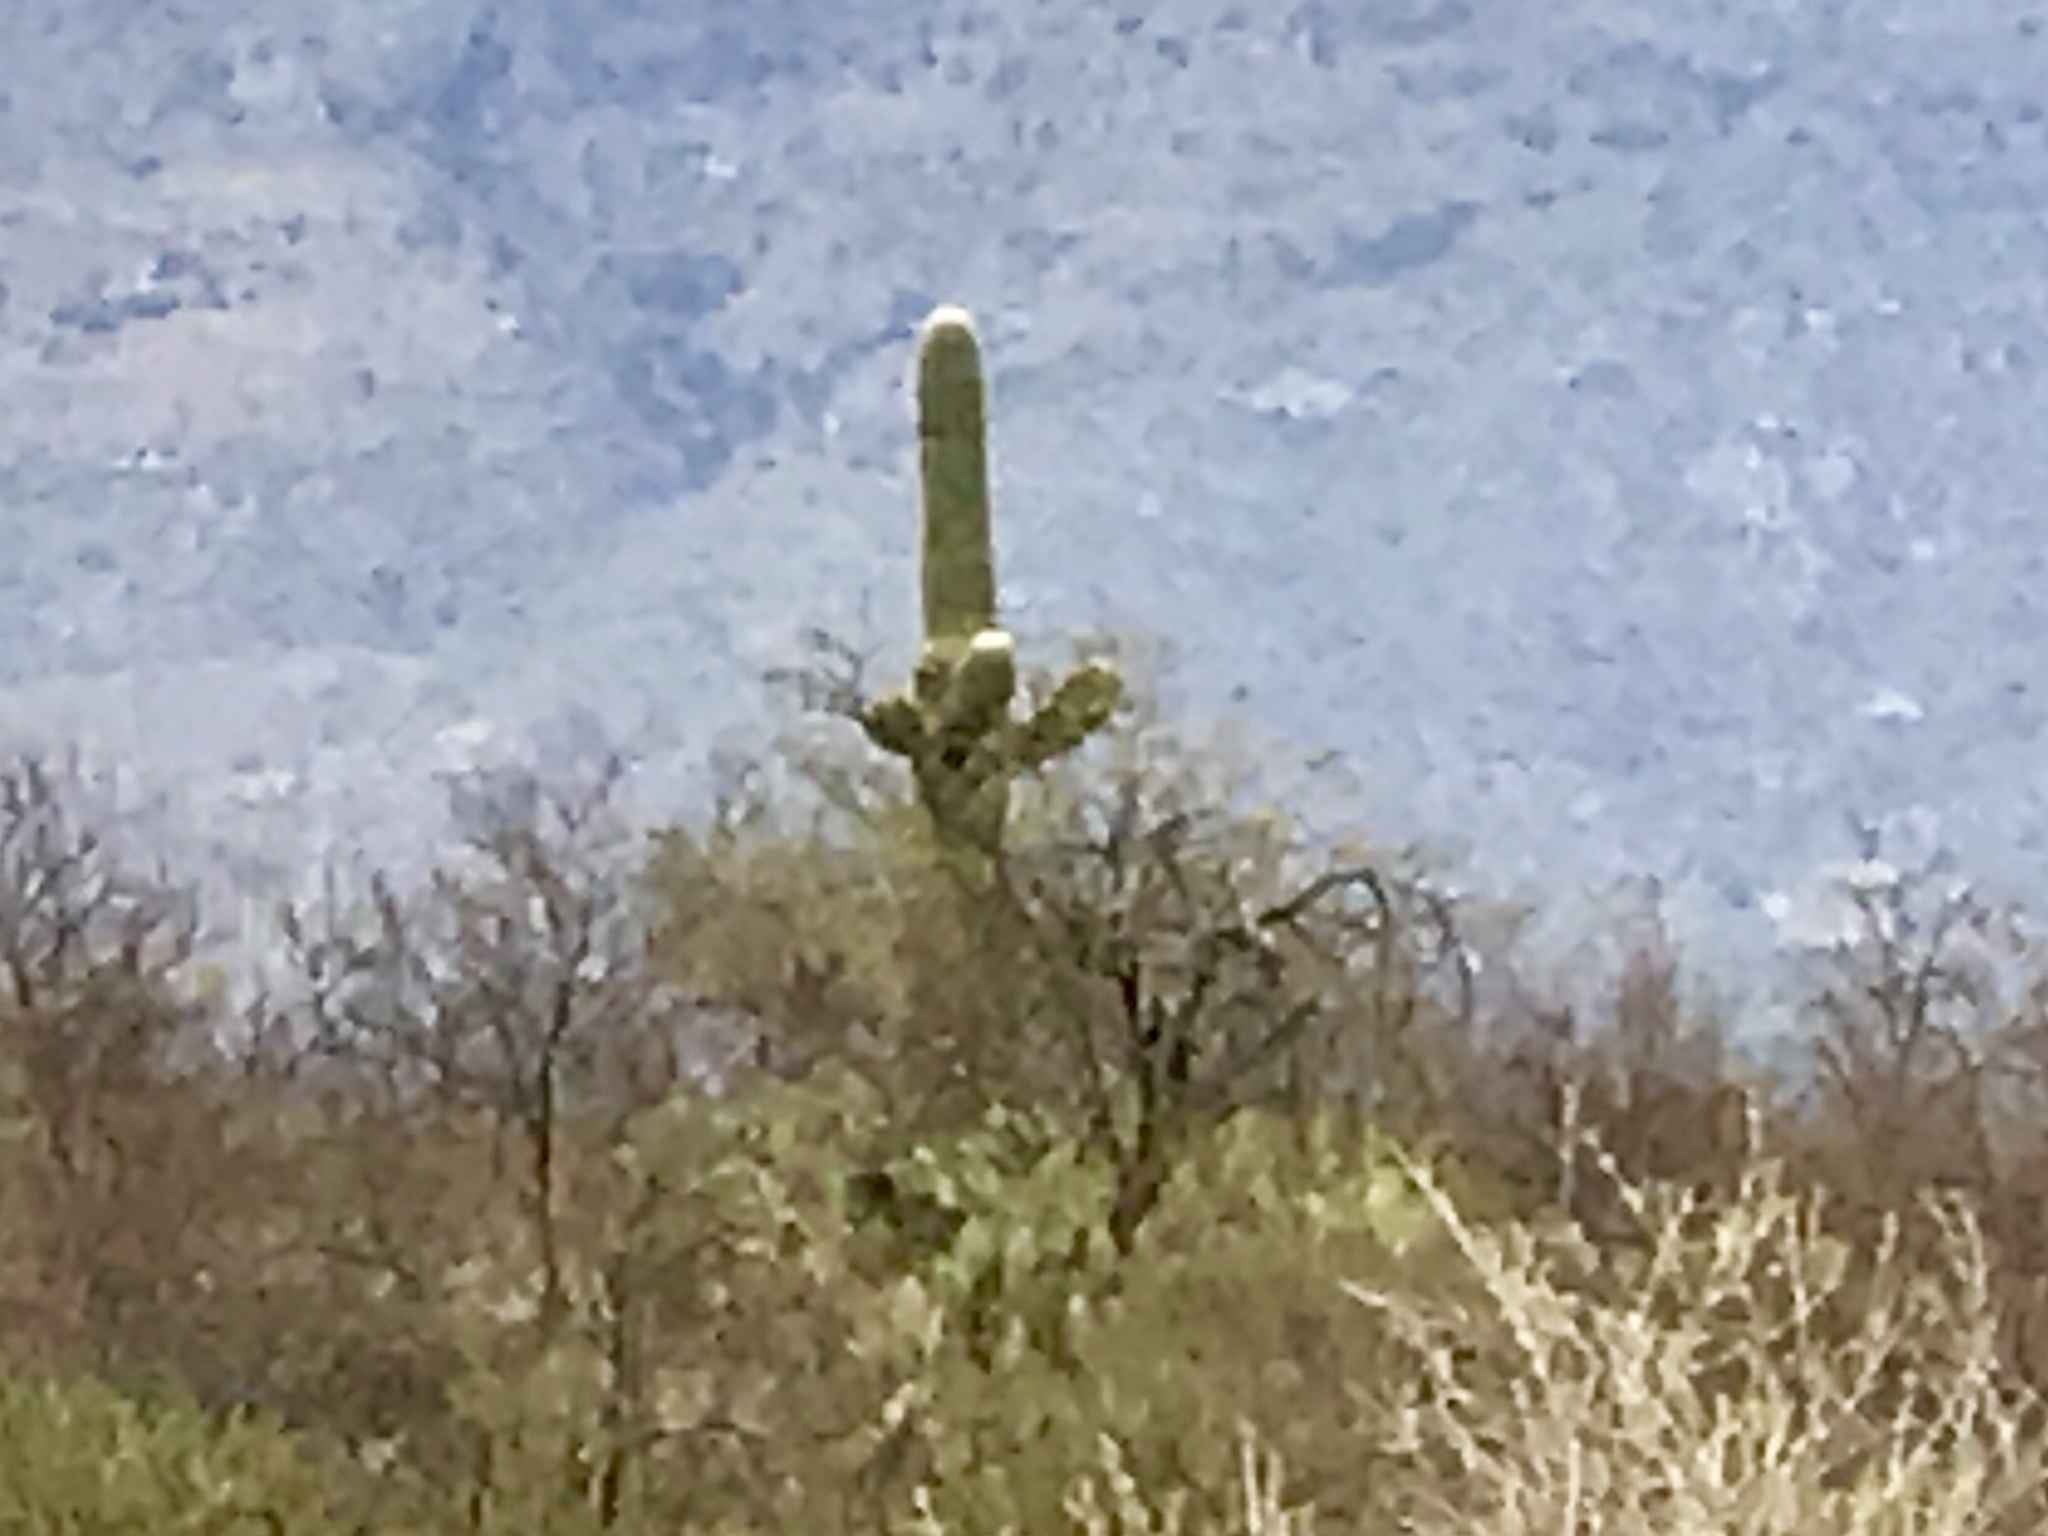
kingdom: Plantae
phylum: Tracheophyta
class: Magnoliopsida
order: Caryophyllales
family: Cactaceae
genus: Carnegiea
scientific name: Carnegiea gigantea
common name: Saguaro
